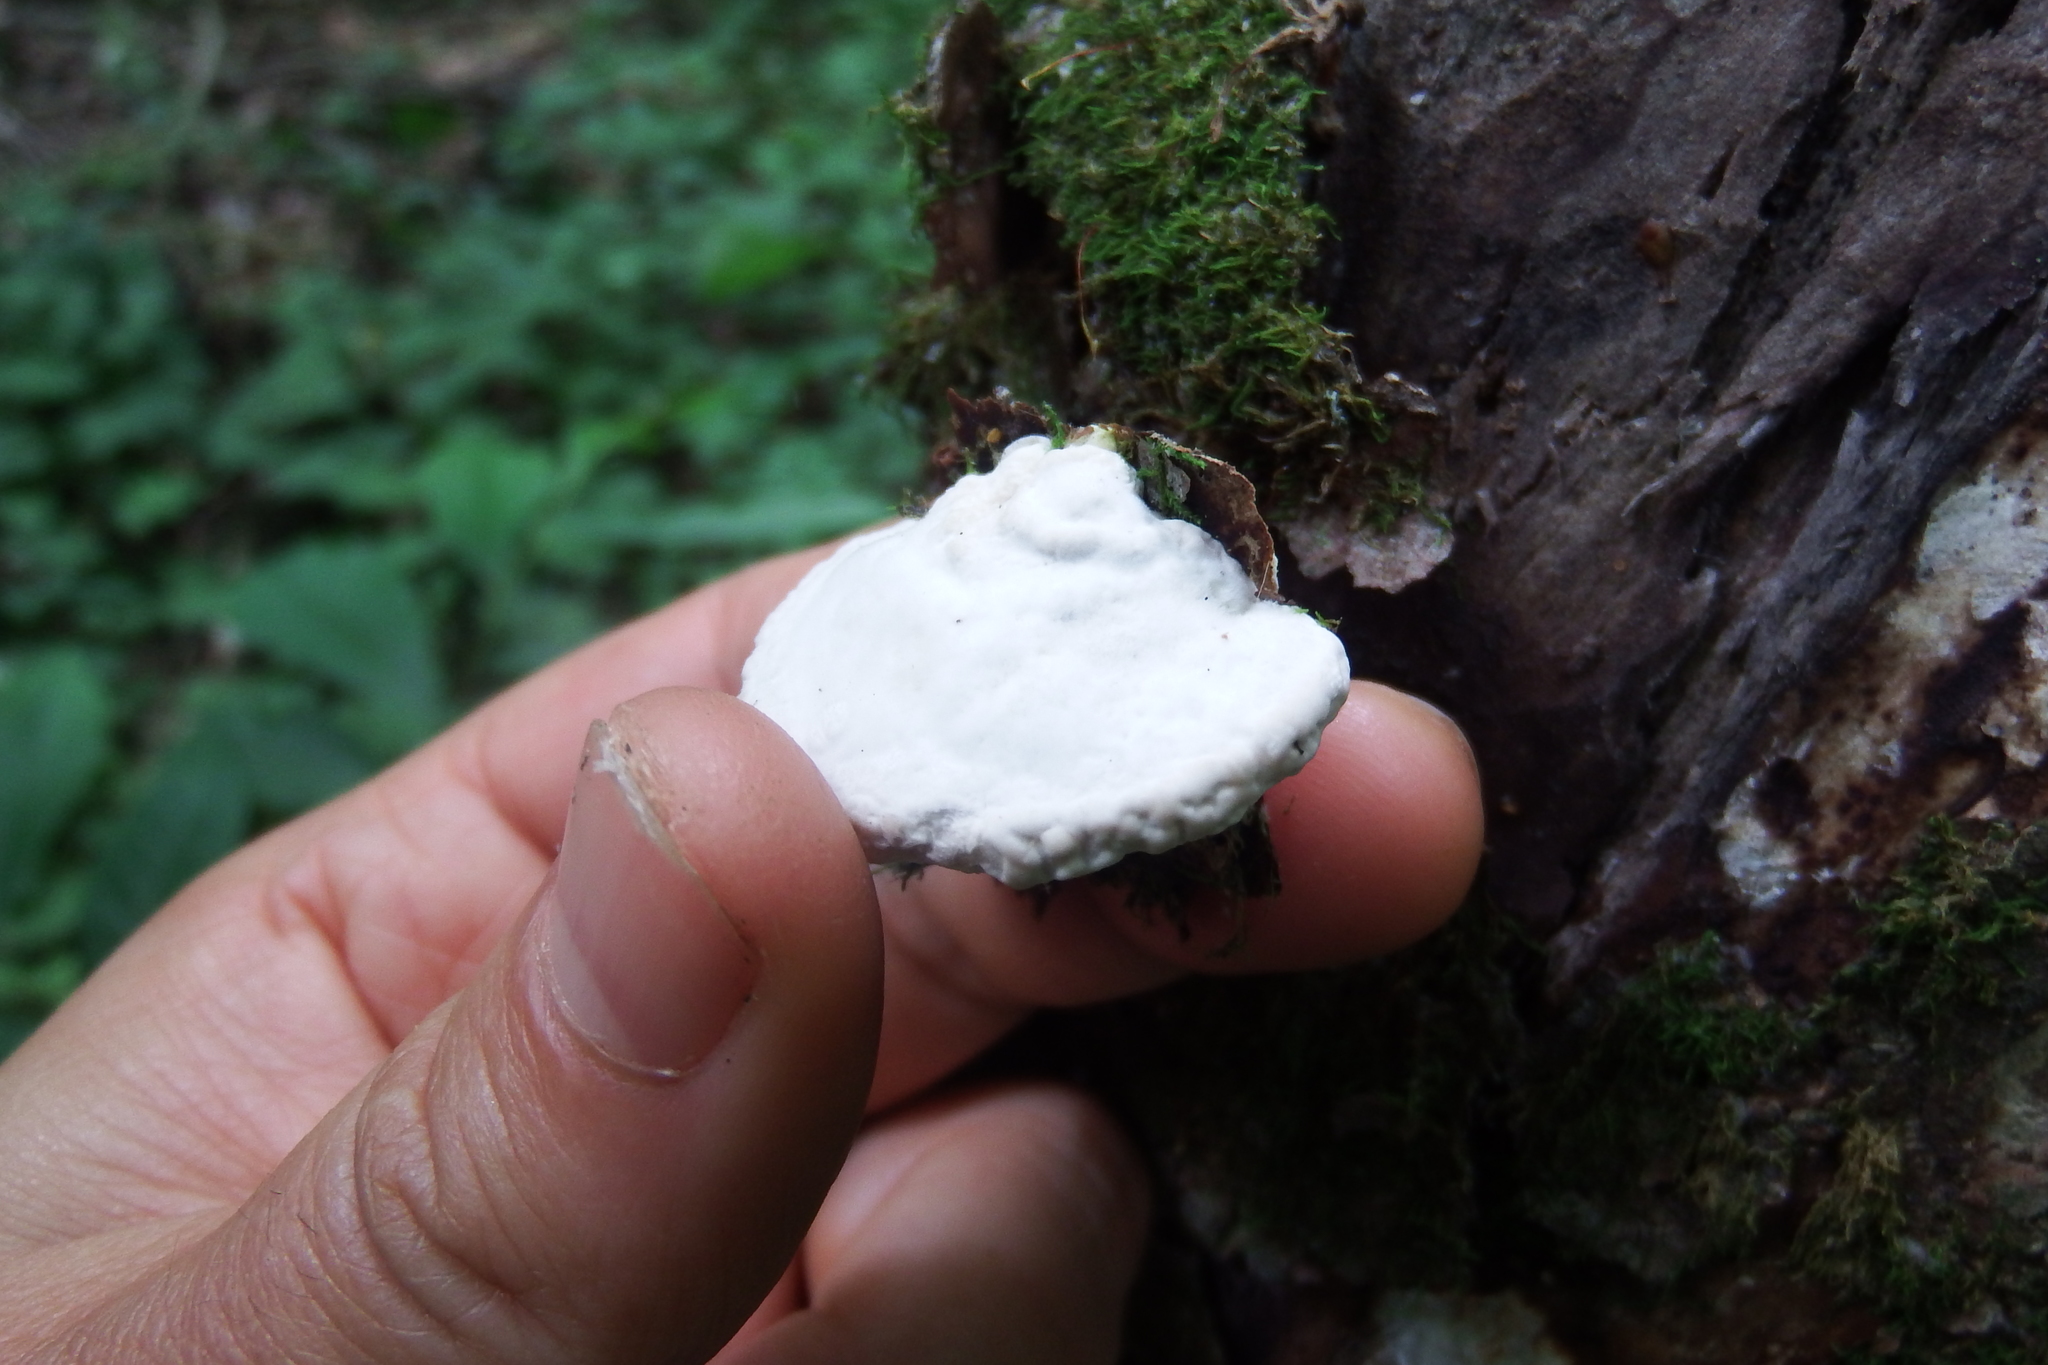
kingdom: Fungi
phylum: Basidiomycota
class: Agaricomycetes
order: Polyporales
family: Polyporaceae
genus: Trametes
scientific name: Trametes gibbosa
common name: Lumpy bracket
